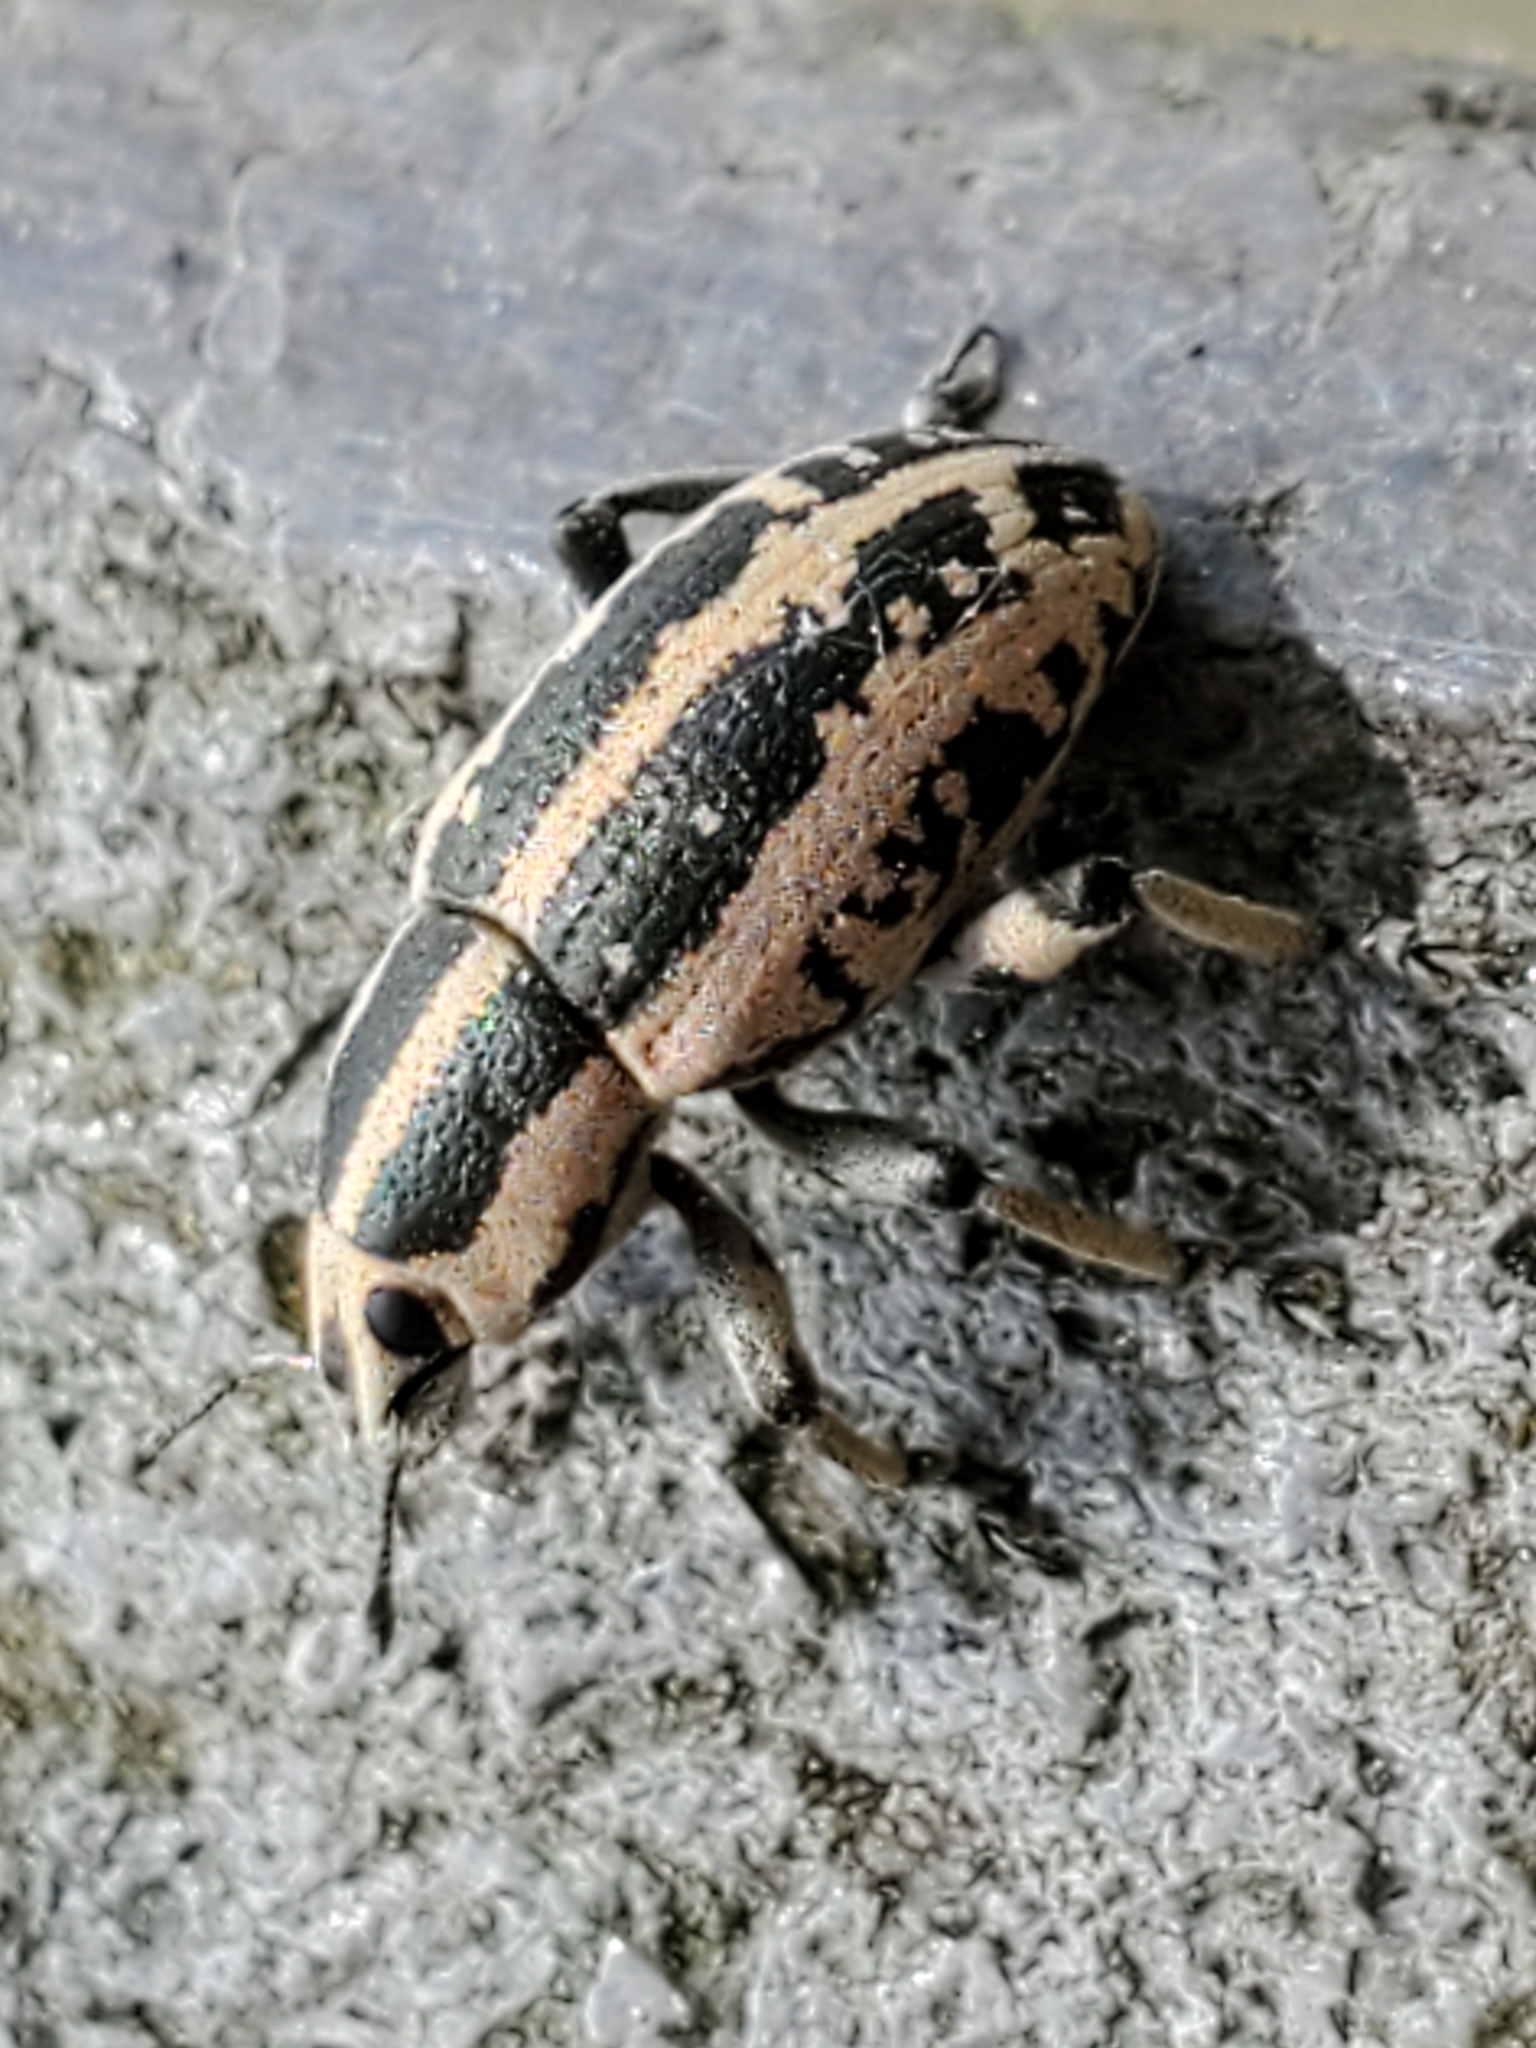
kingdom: Animalia
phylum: Arthropoda
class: Insecta
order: Coleoptera
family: Curculionidae
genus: Eudiagogus
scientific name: Eudiagogus rosenschoeldi
